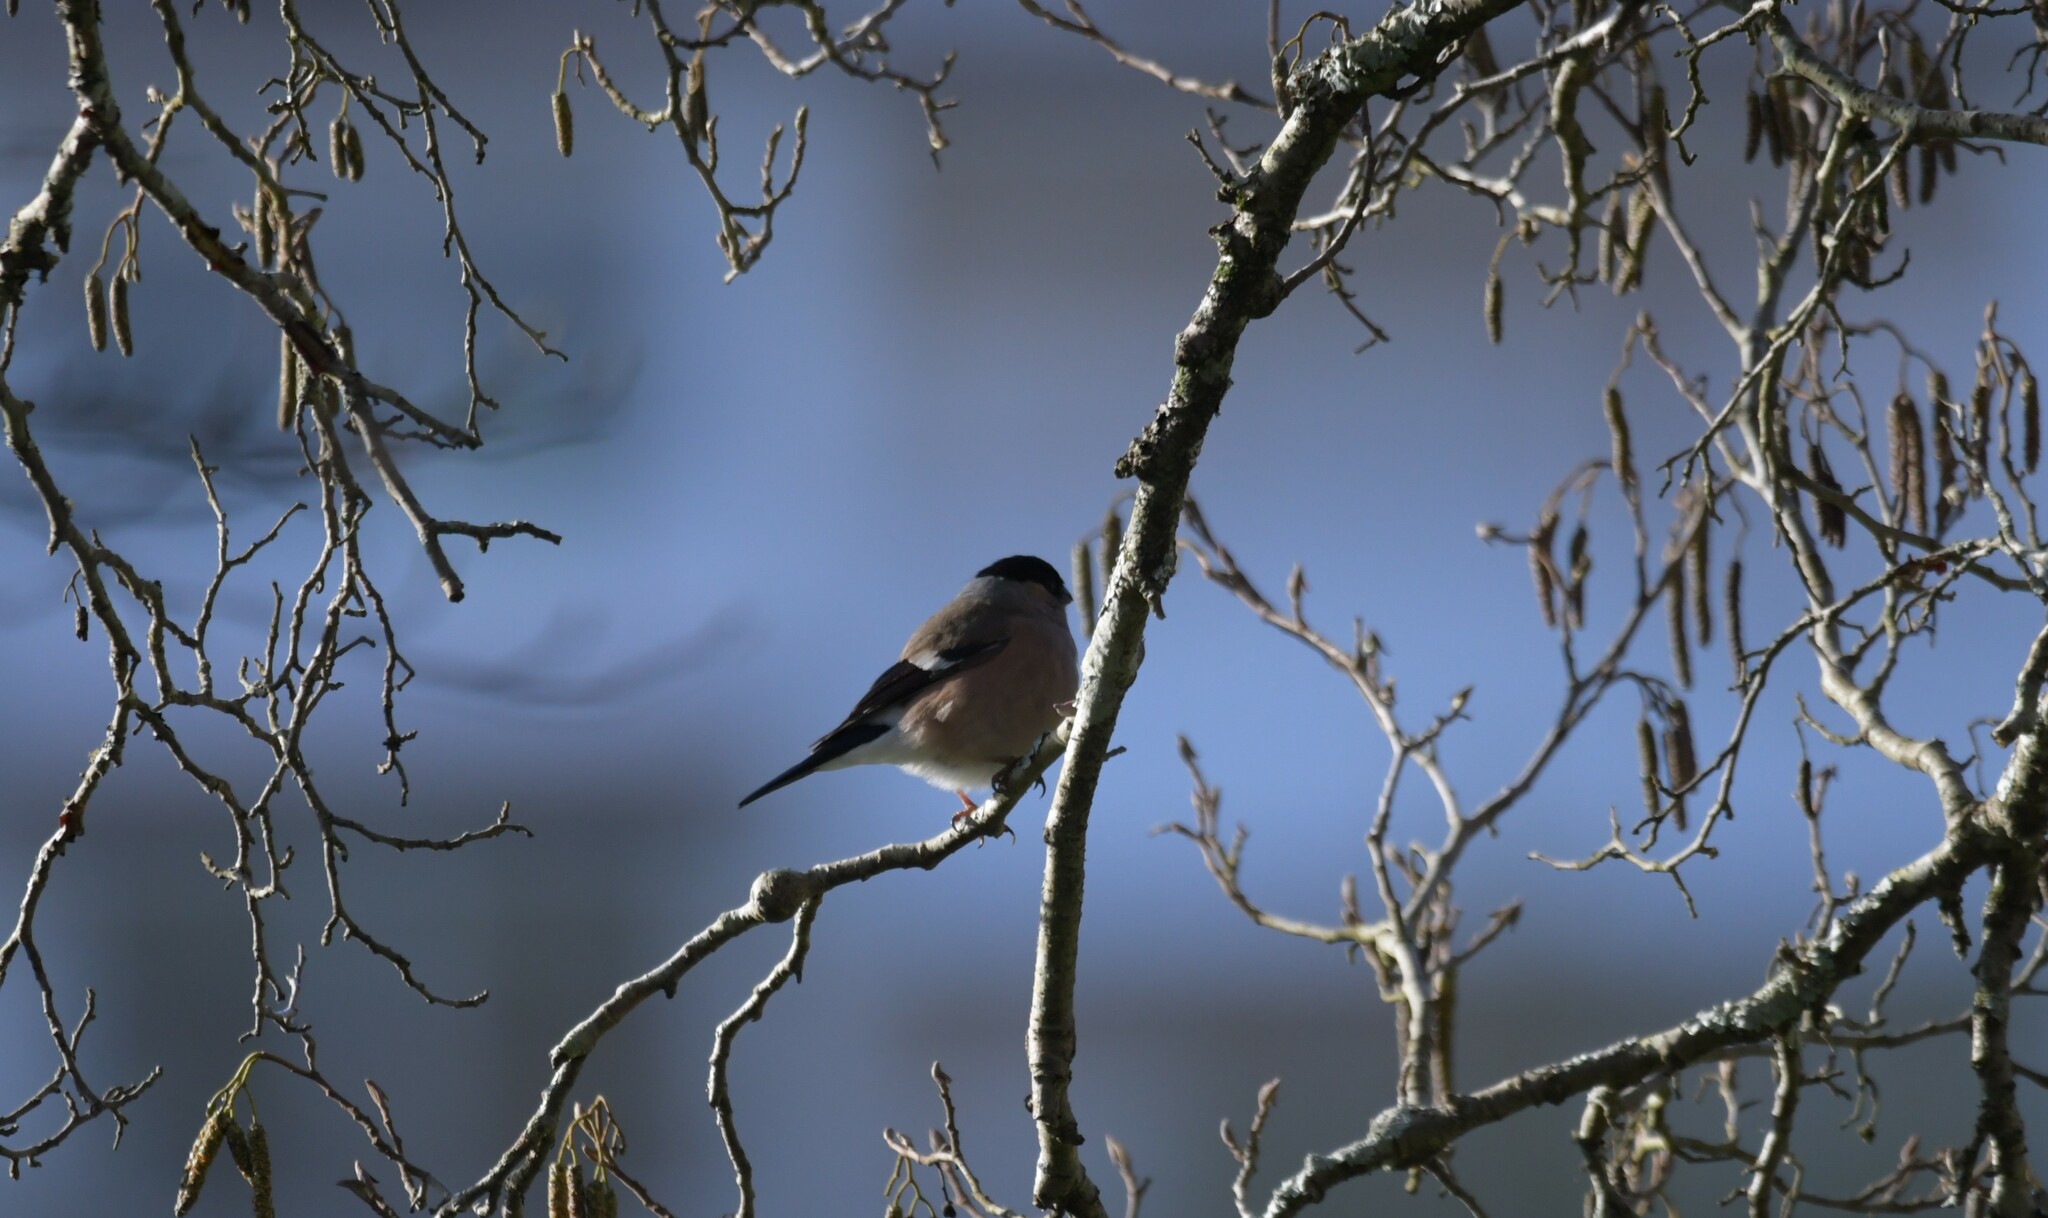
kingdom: Animalia
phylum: Chordata
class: Aves
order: Passeriformes
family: Fringillidae
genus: Pyrrhula
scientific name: Pyrrhula pyrrhula
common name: Eurasian bullfinch
